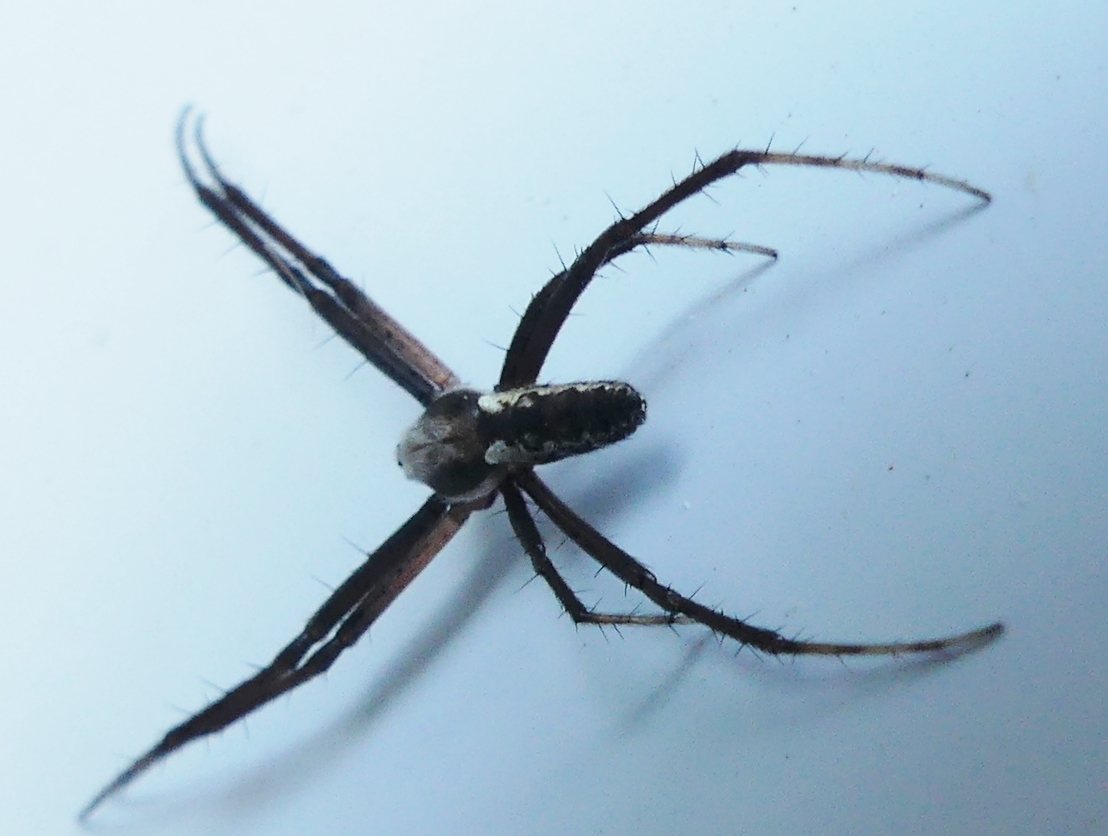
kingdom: Animalia
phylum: Arthropoda
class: Arachnida
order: Araneae
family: Araneidae
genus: Argiope
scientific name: Argiope aurantia
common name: Orb weavers
